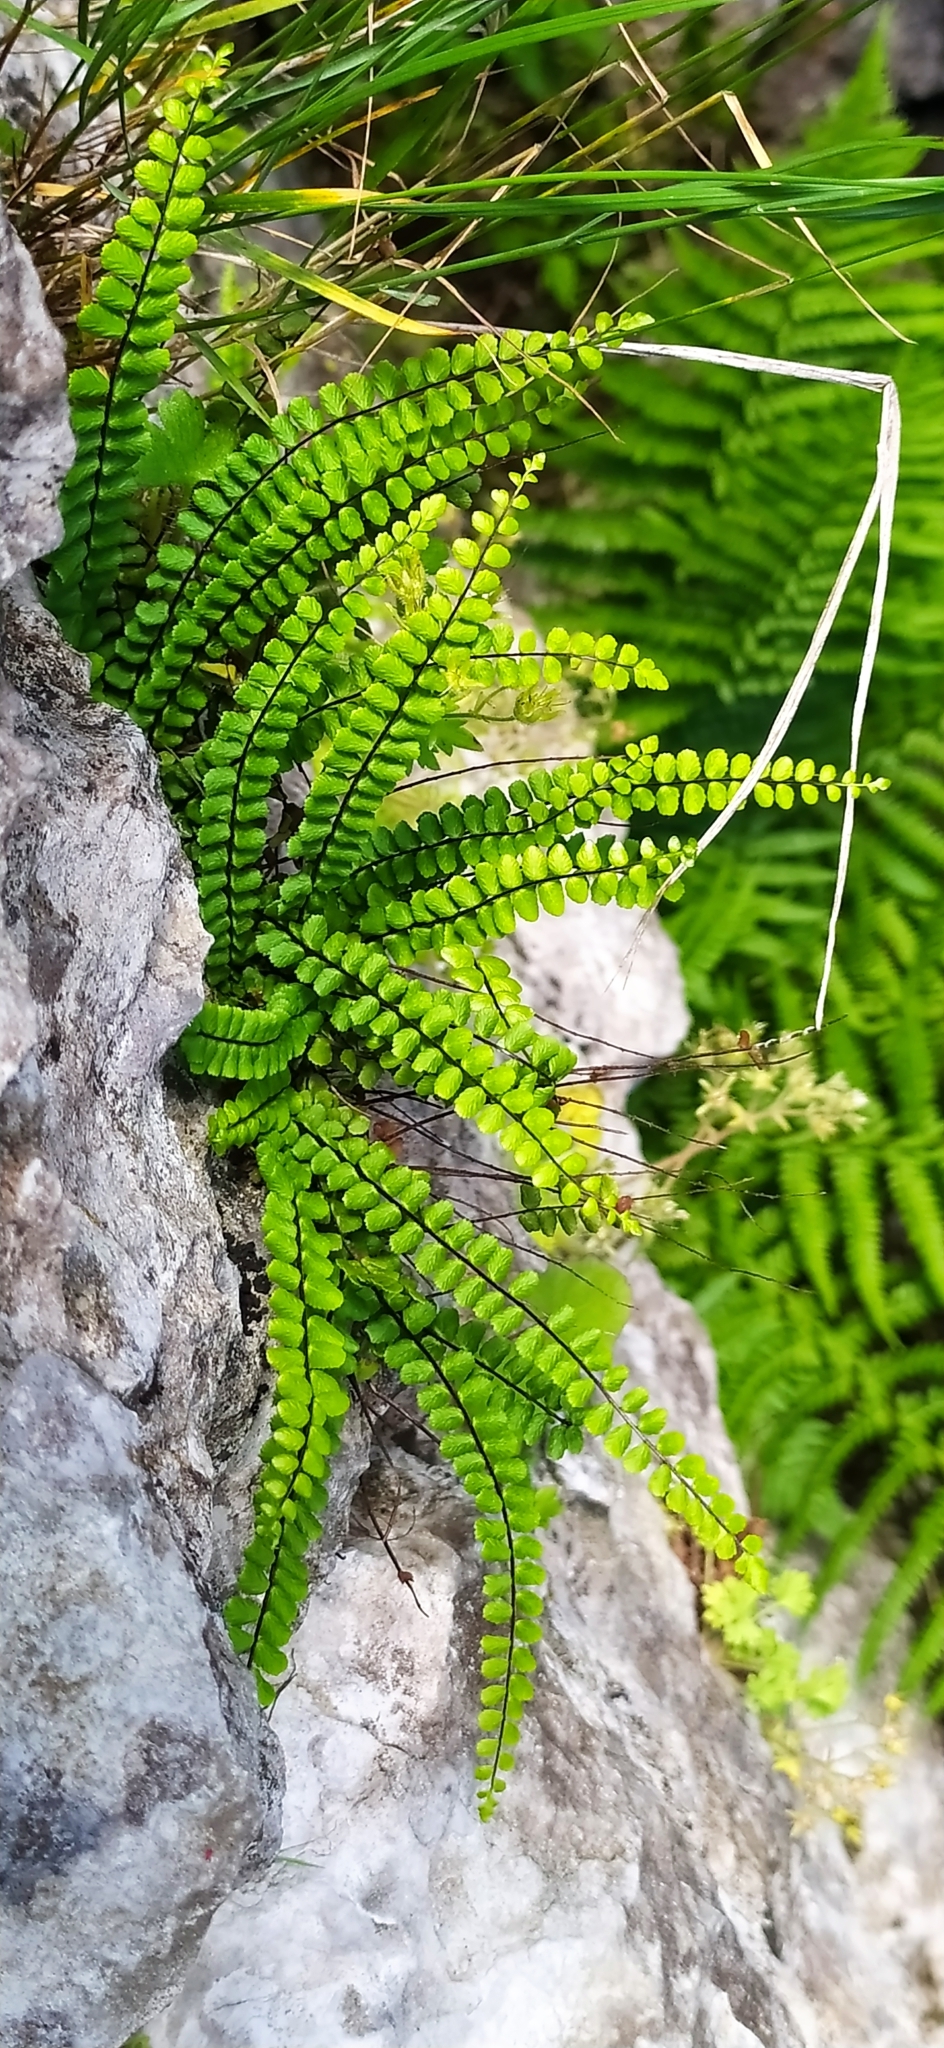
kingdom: Plantae
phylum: Tracheophyta
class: Polypodiopsida
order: Polypodiales
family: Aspleniaceae
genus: Asplenium
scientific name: Asplenium trichomanes
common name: Maidenhair spleenwort
